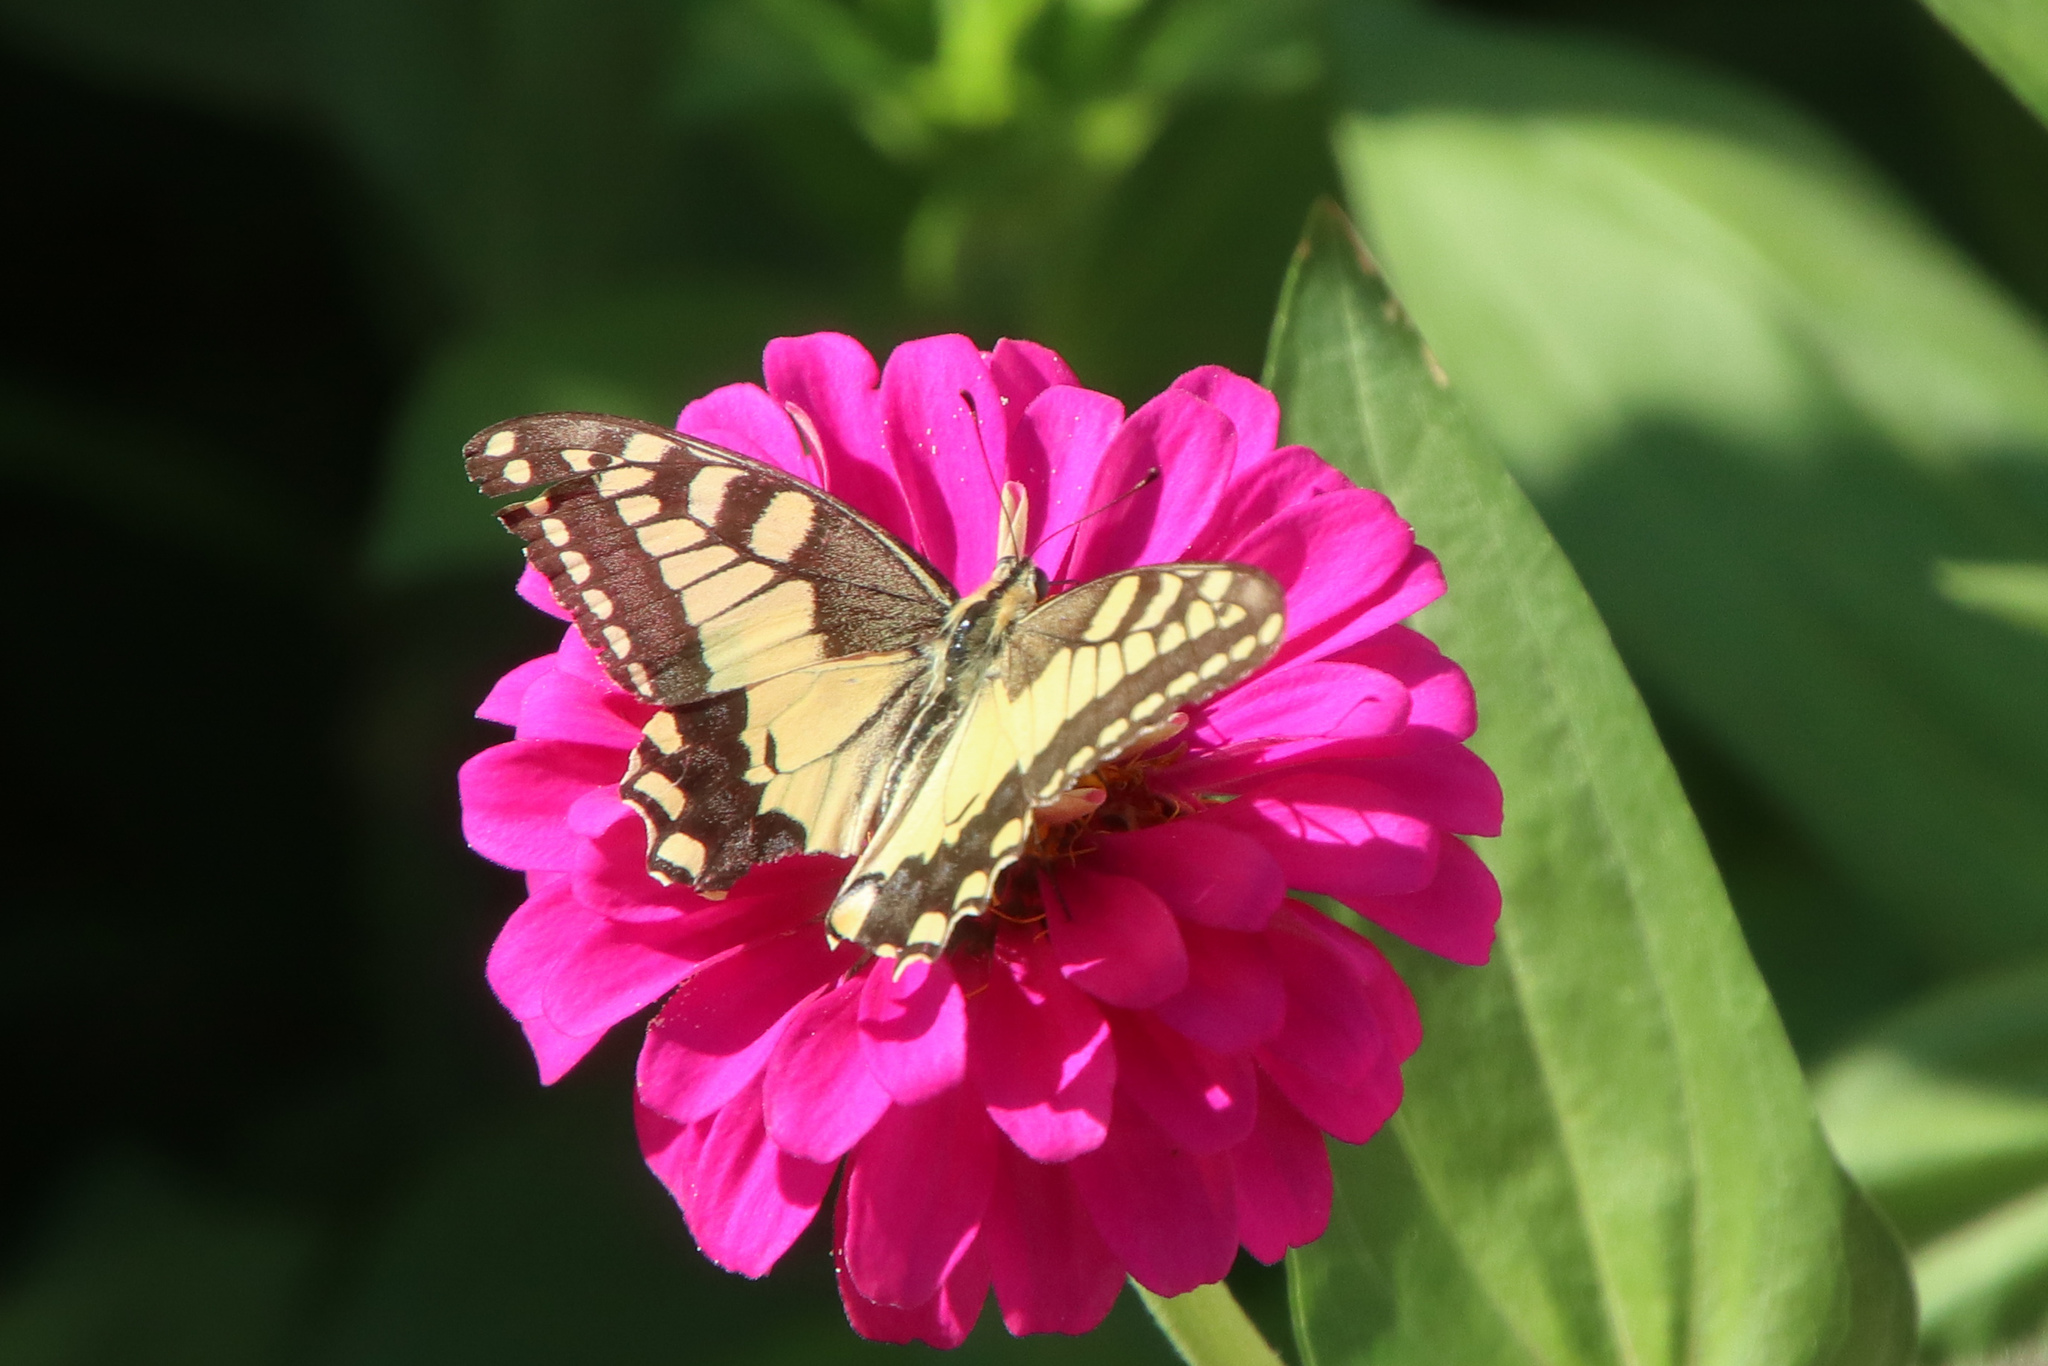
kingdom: Animalia
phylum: Arthropoda
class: Insecta
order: Lepidoptera
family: Papilionidae
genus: Papilio
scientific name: Papilio machaon
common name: Swallowtail
